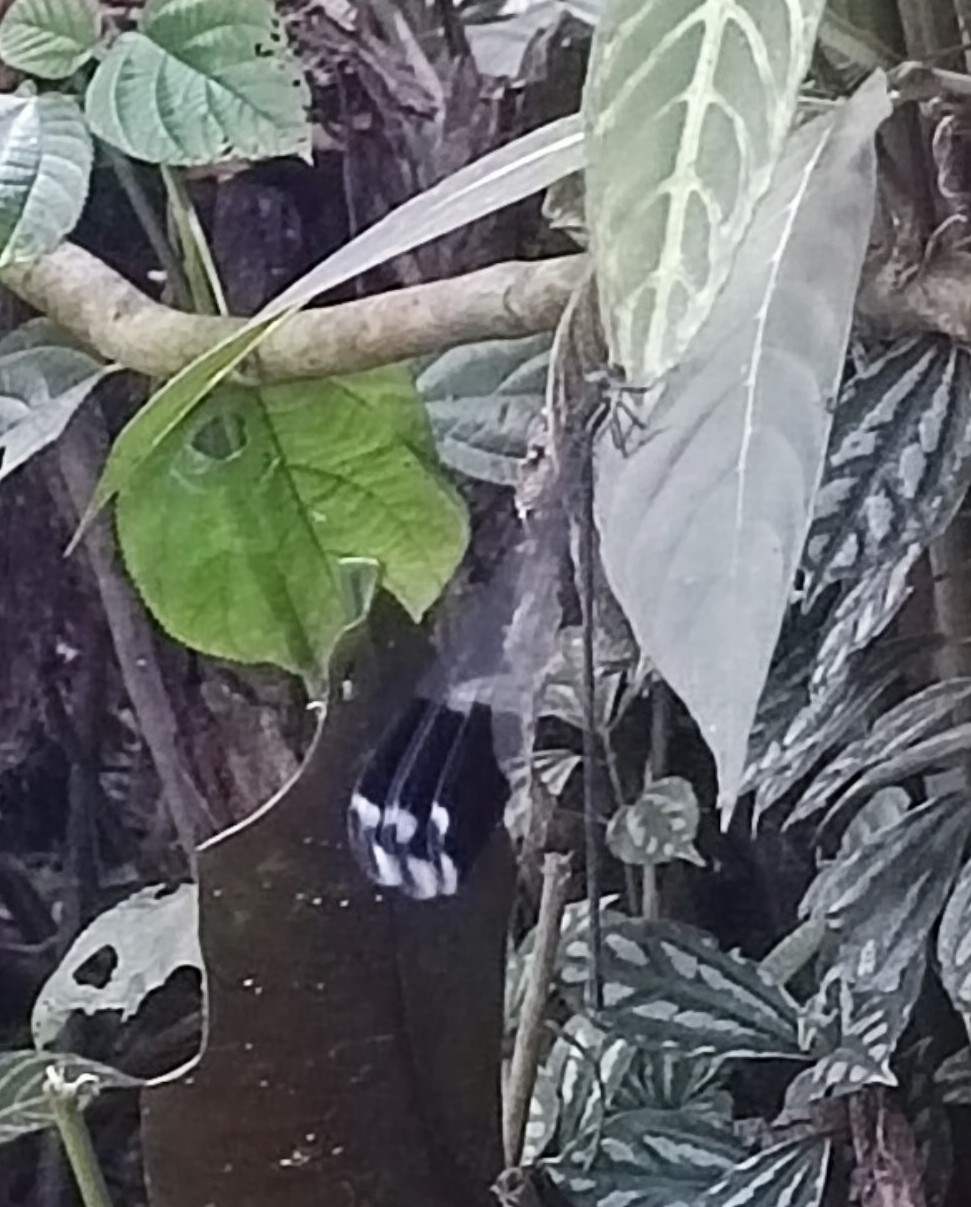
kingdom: Animalia
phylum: Arthropoda
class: Insecta
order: Odonata
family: Coenagrionidae
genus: Megaloprepus
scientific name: Megaloprepus latipennis
